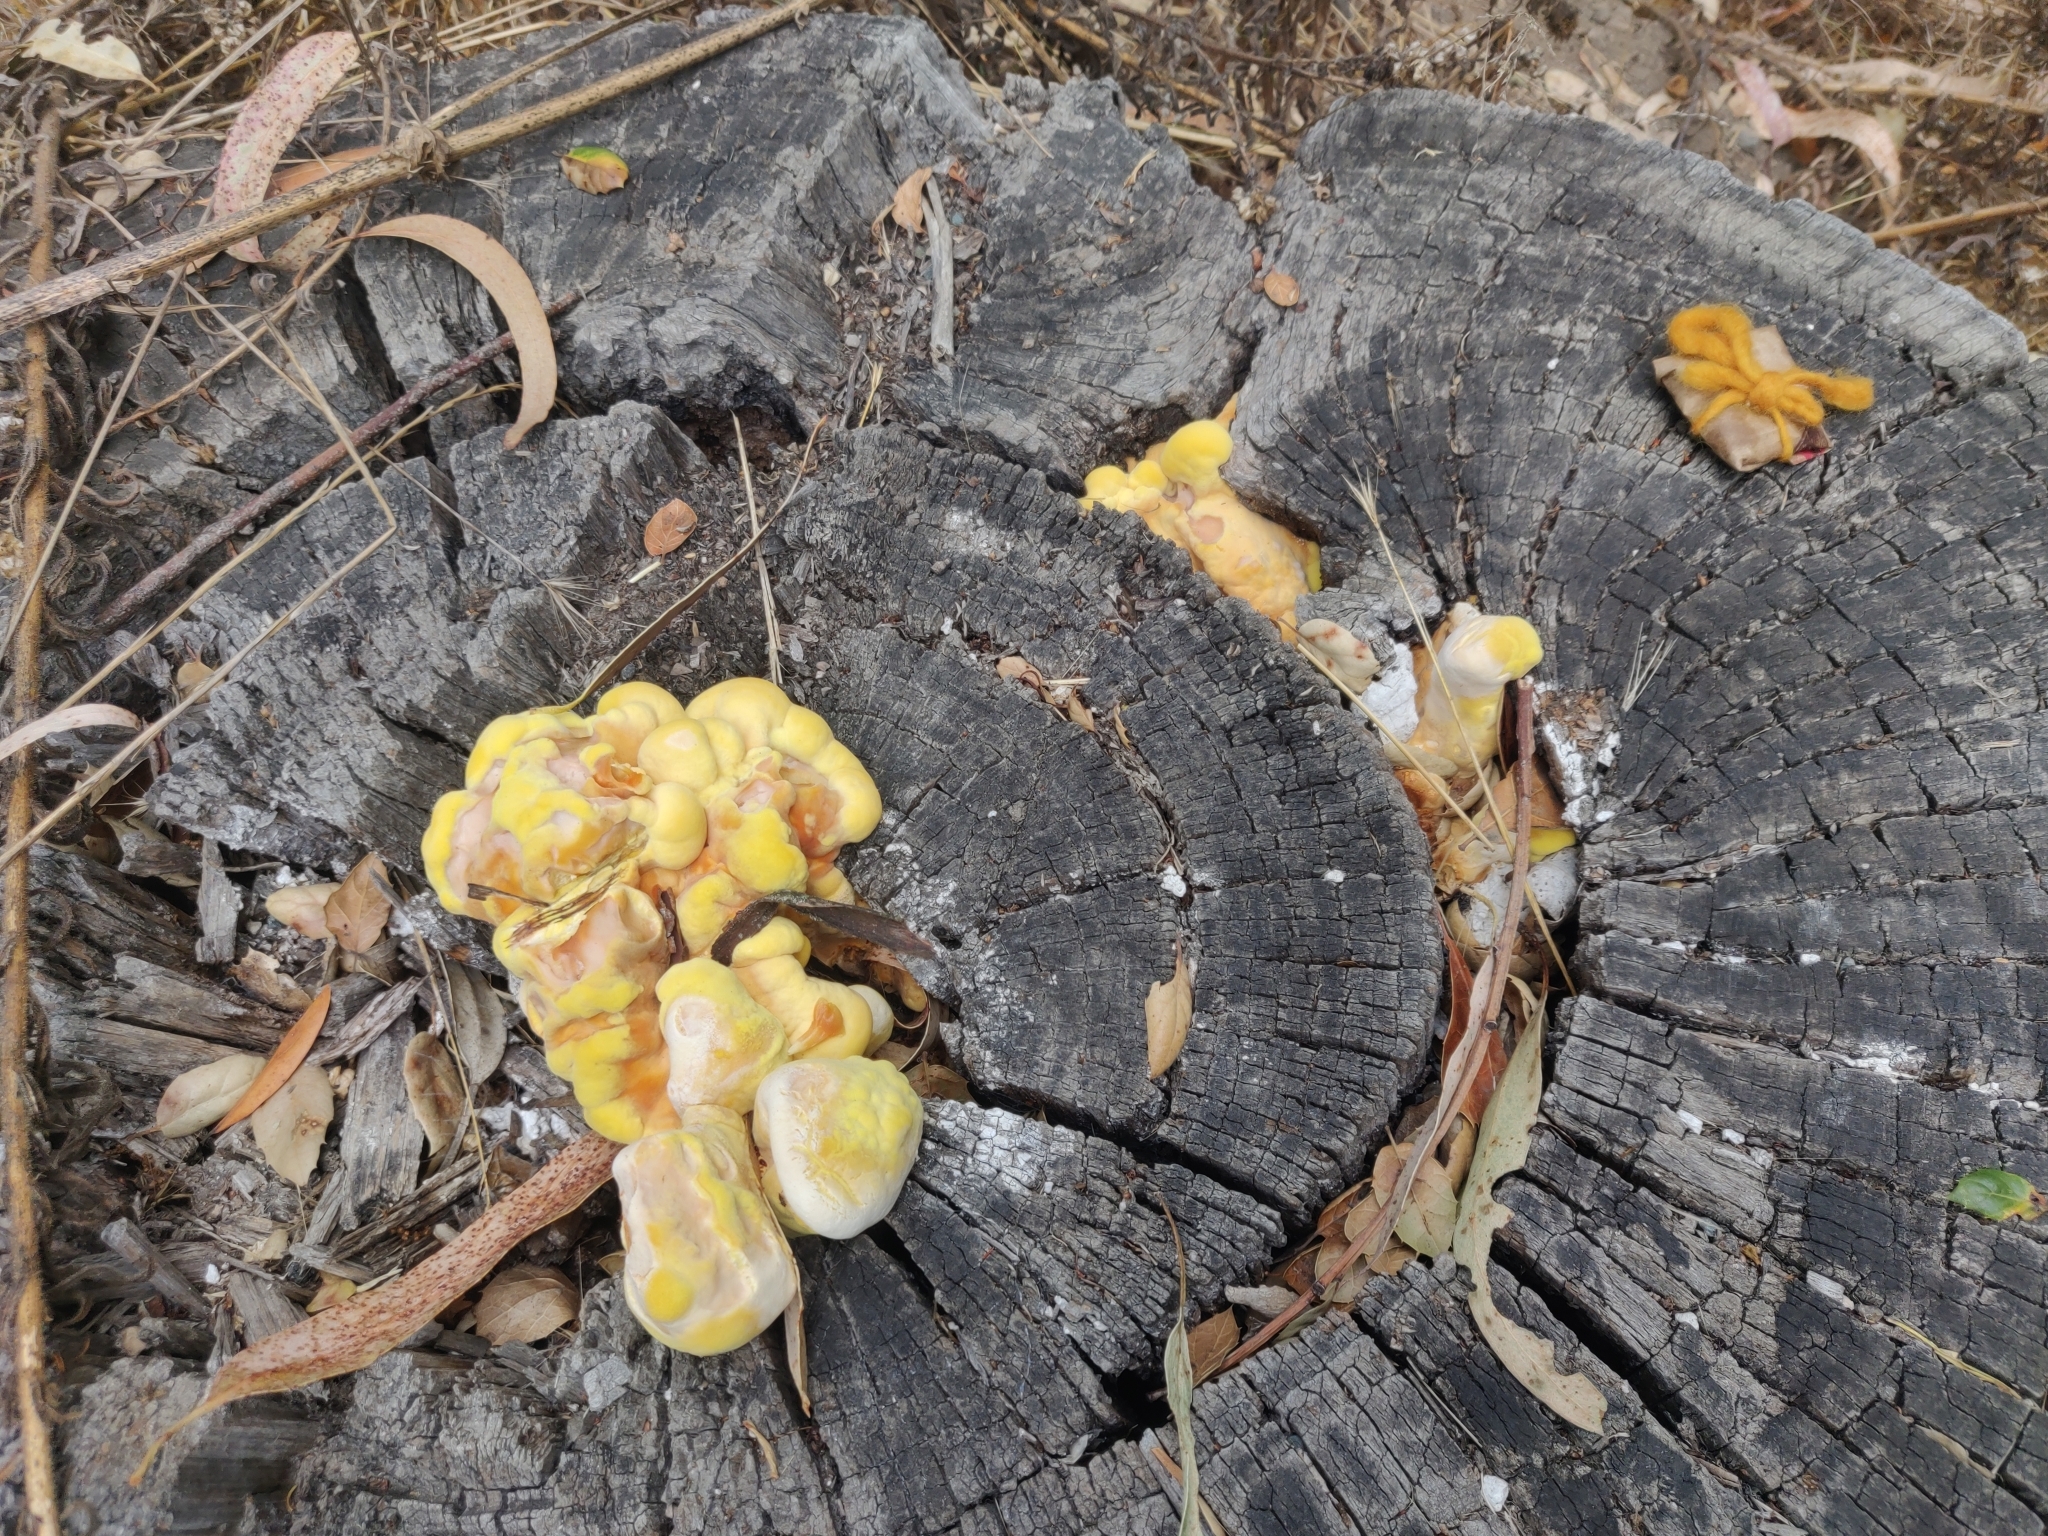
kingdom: Fungi
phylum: Basidiomycota
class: Agaricomycetes
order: Polyporales
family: Laetiporaceae
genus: Laetiporus
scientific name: Laetiporus gilbertsonii
